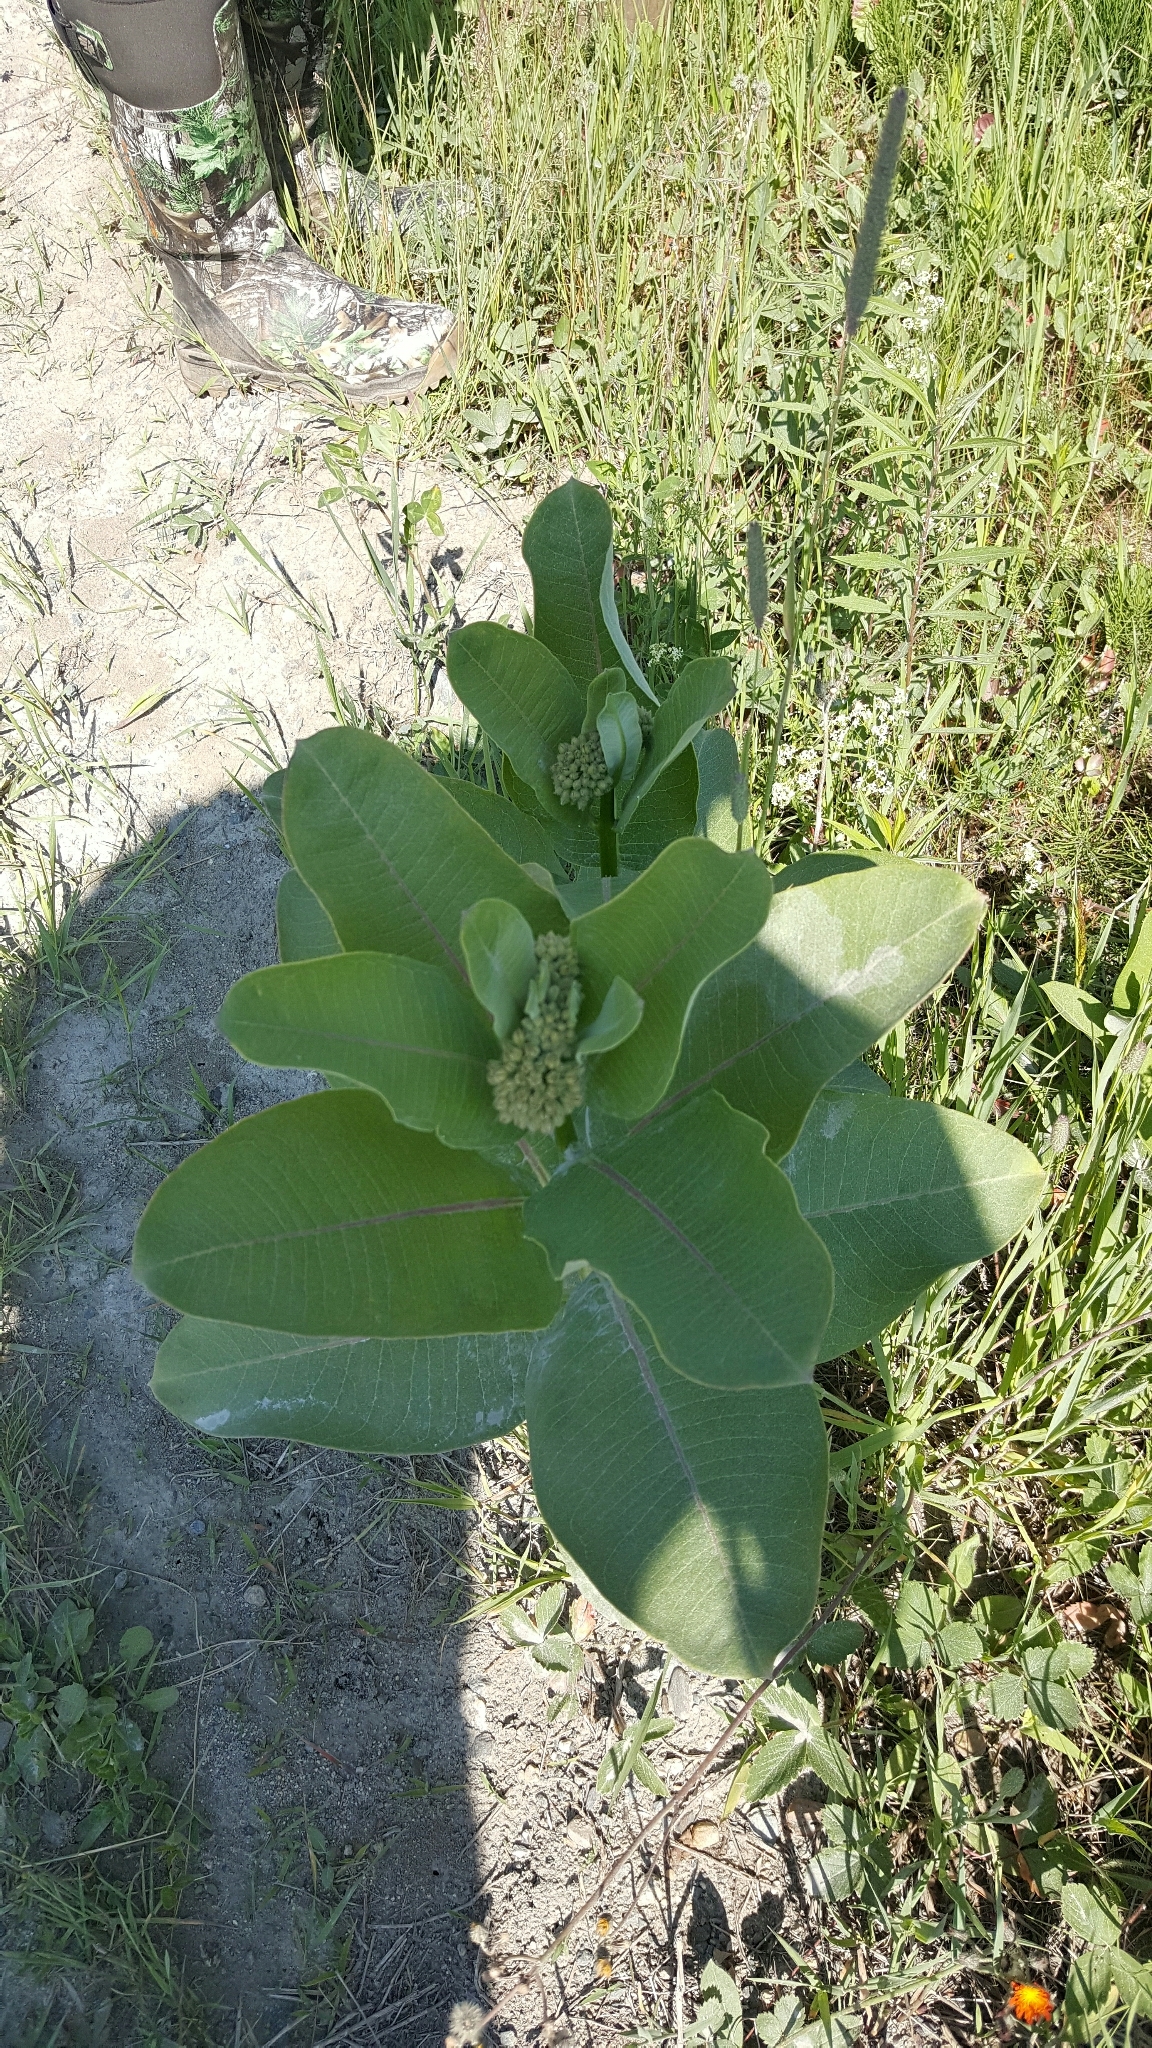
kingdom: Plantae
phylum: Tracheophyta
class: Magnoliopsida
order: Gentianales
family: Apocynaceae
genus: Asclepias
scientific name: Asclepias syriaca
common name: Common milkweed
